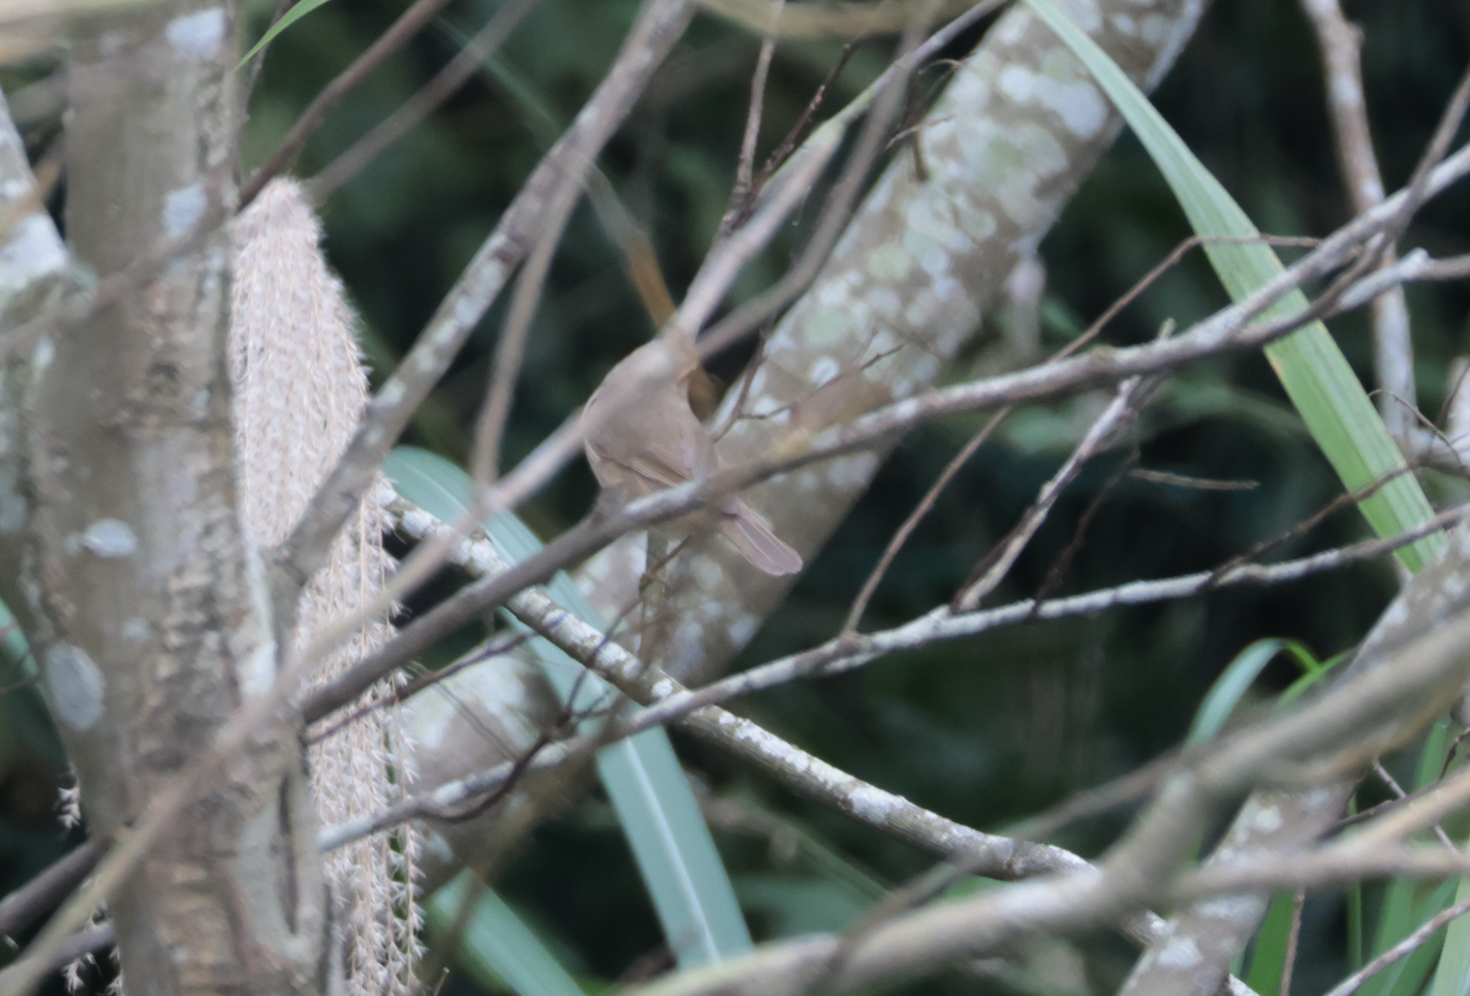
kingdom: Animalia
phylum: Chordata
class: Aves
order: Passeriformes
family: Phylloscopidae
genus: Phylloscopus
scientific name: Phylloscopus fuscatus
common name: Dusky warbler
